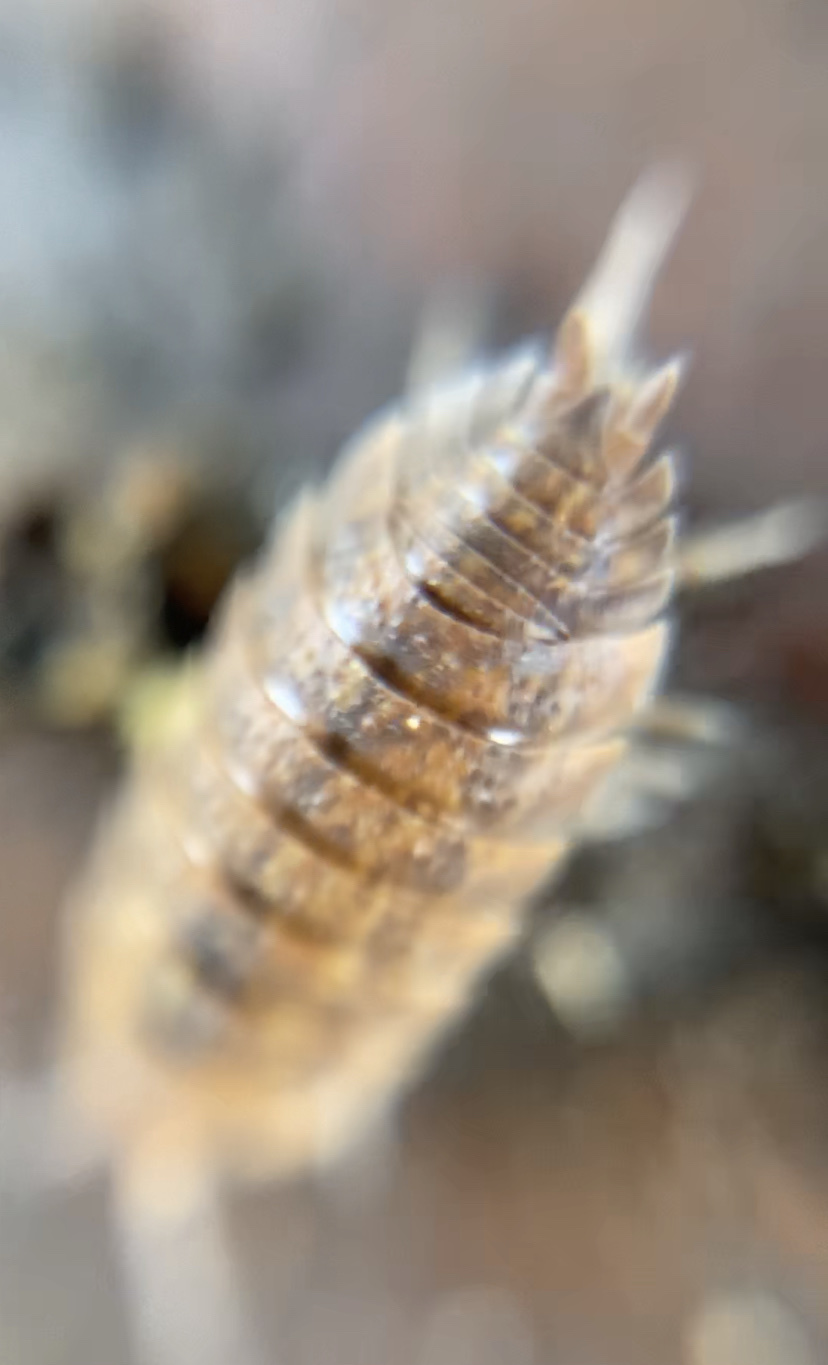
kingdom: Animalia
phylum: Arthropoda
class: Malacostraca
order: Isopoda
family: Porcellionidae
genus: Porcellio
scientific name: Porcellio scaber
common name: Common rough woodlouse
